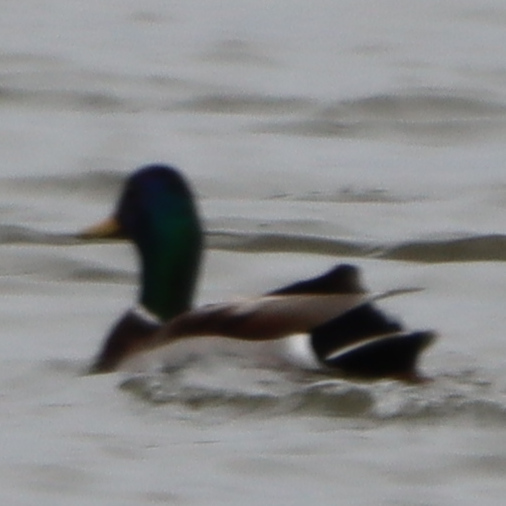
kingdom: Animalia
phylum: Chordata
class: Aves
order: Anseriformes
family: Anatidae
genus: Anas
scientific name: Anas platyrhynchos
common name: Mallard
